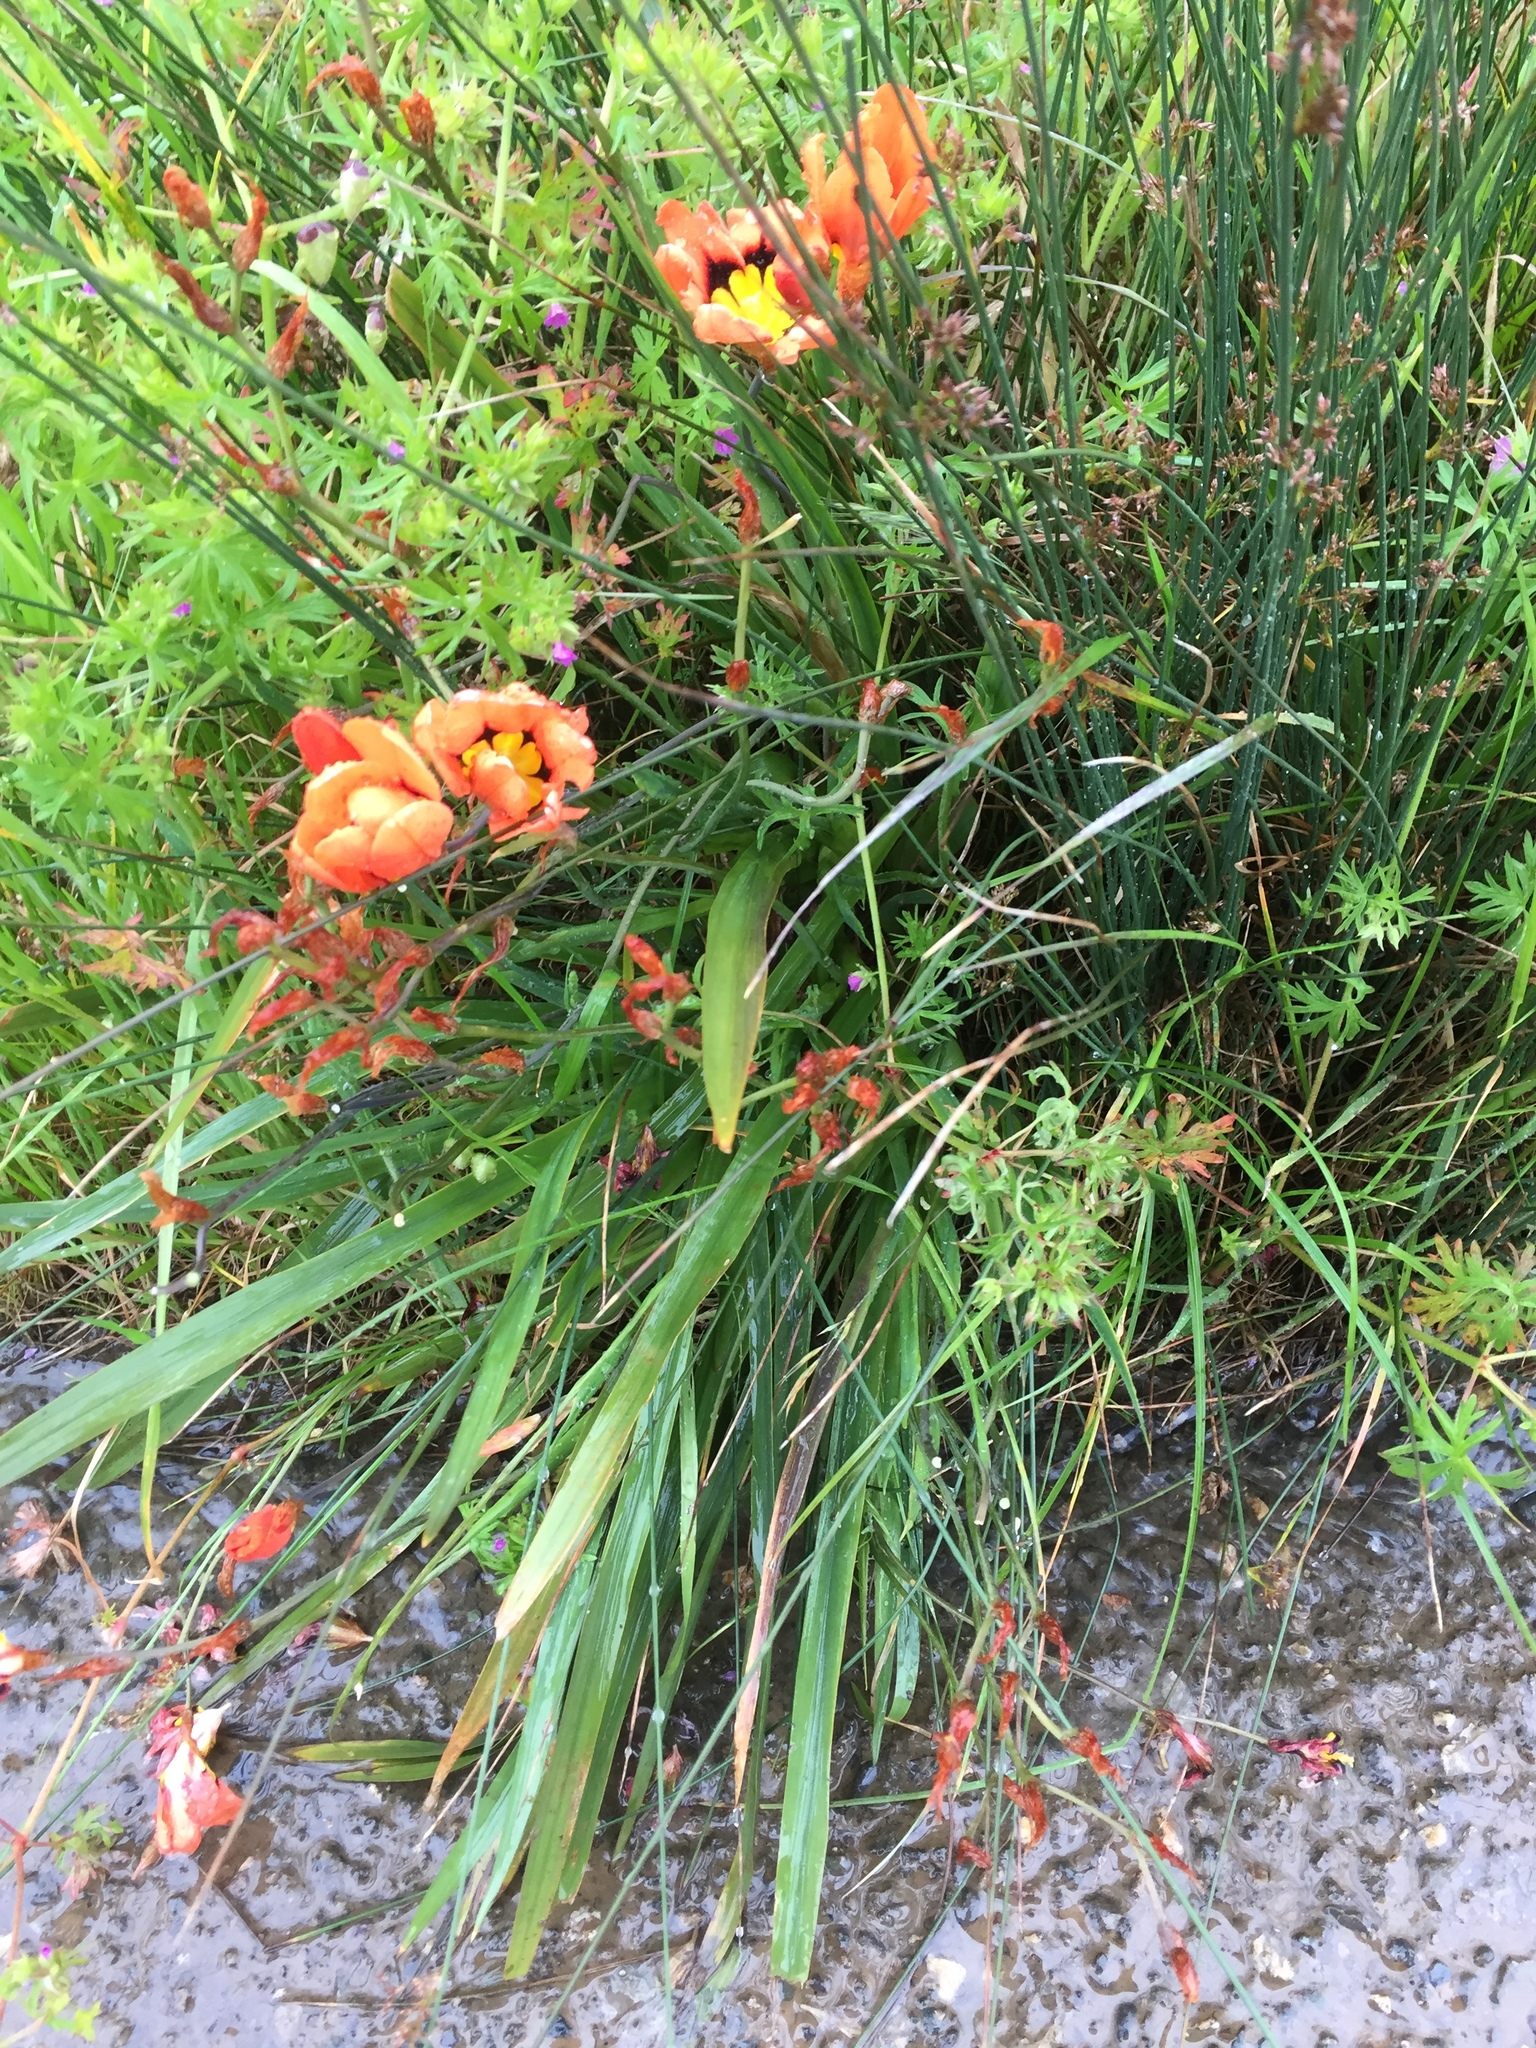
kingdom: Plantae
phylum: Tracheophyta
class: Liliopsida
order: Asparagales
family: Iridaceae
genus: Sparaxis
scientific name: Sparaxis tricolor
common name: Wandflower
